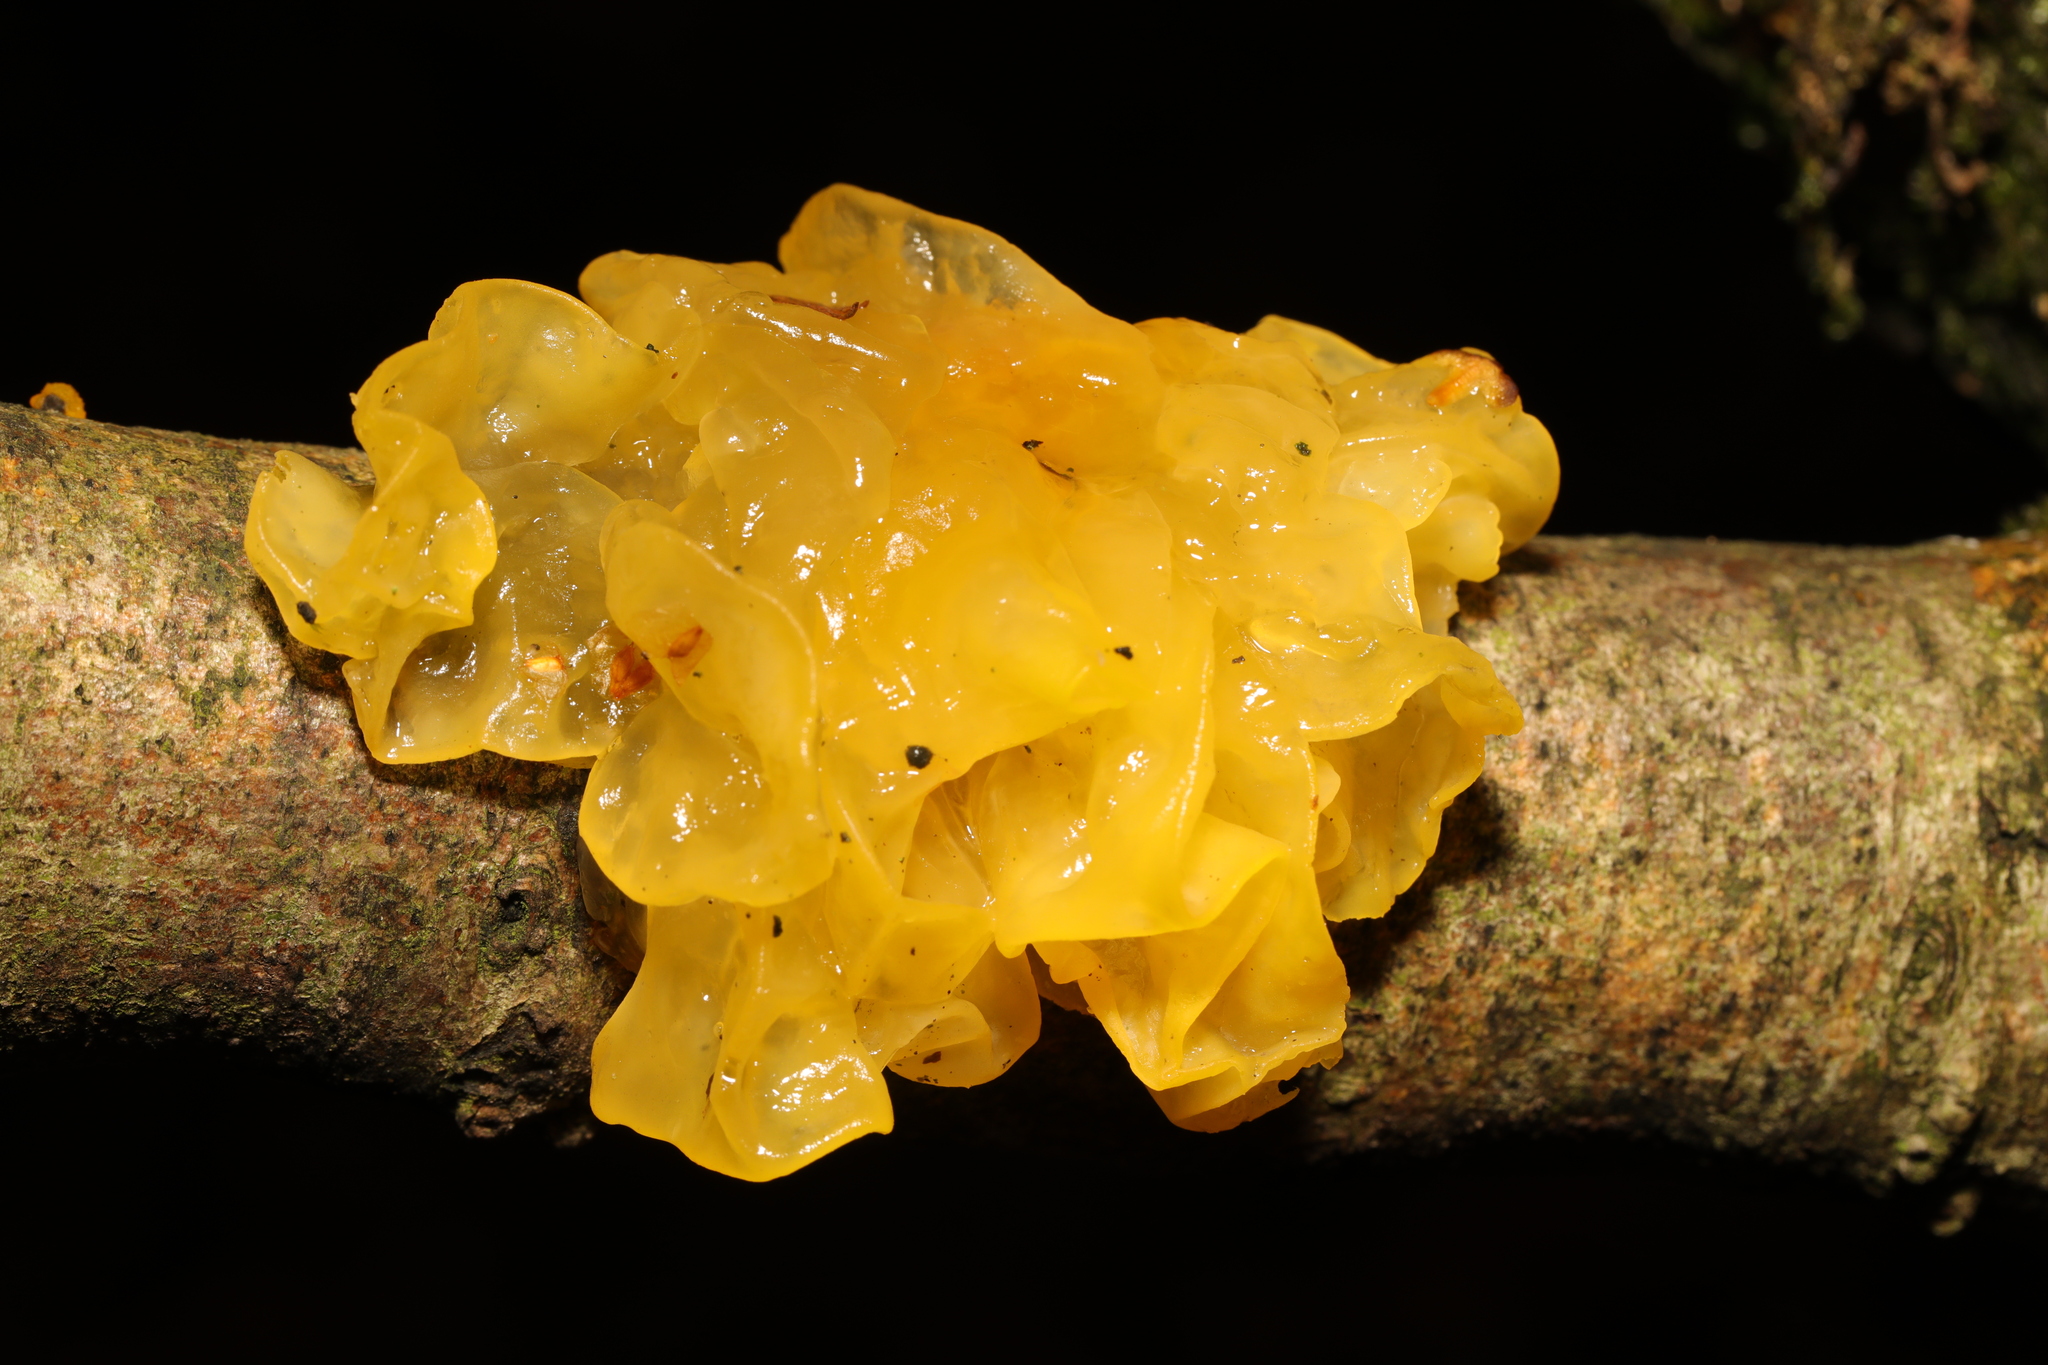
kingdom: Fungi
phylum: Basidiomycota
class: Tremellomycetes
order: Tremellales
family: Tremellaceae
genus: Tremella
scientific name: Tremella mesenterica
